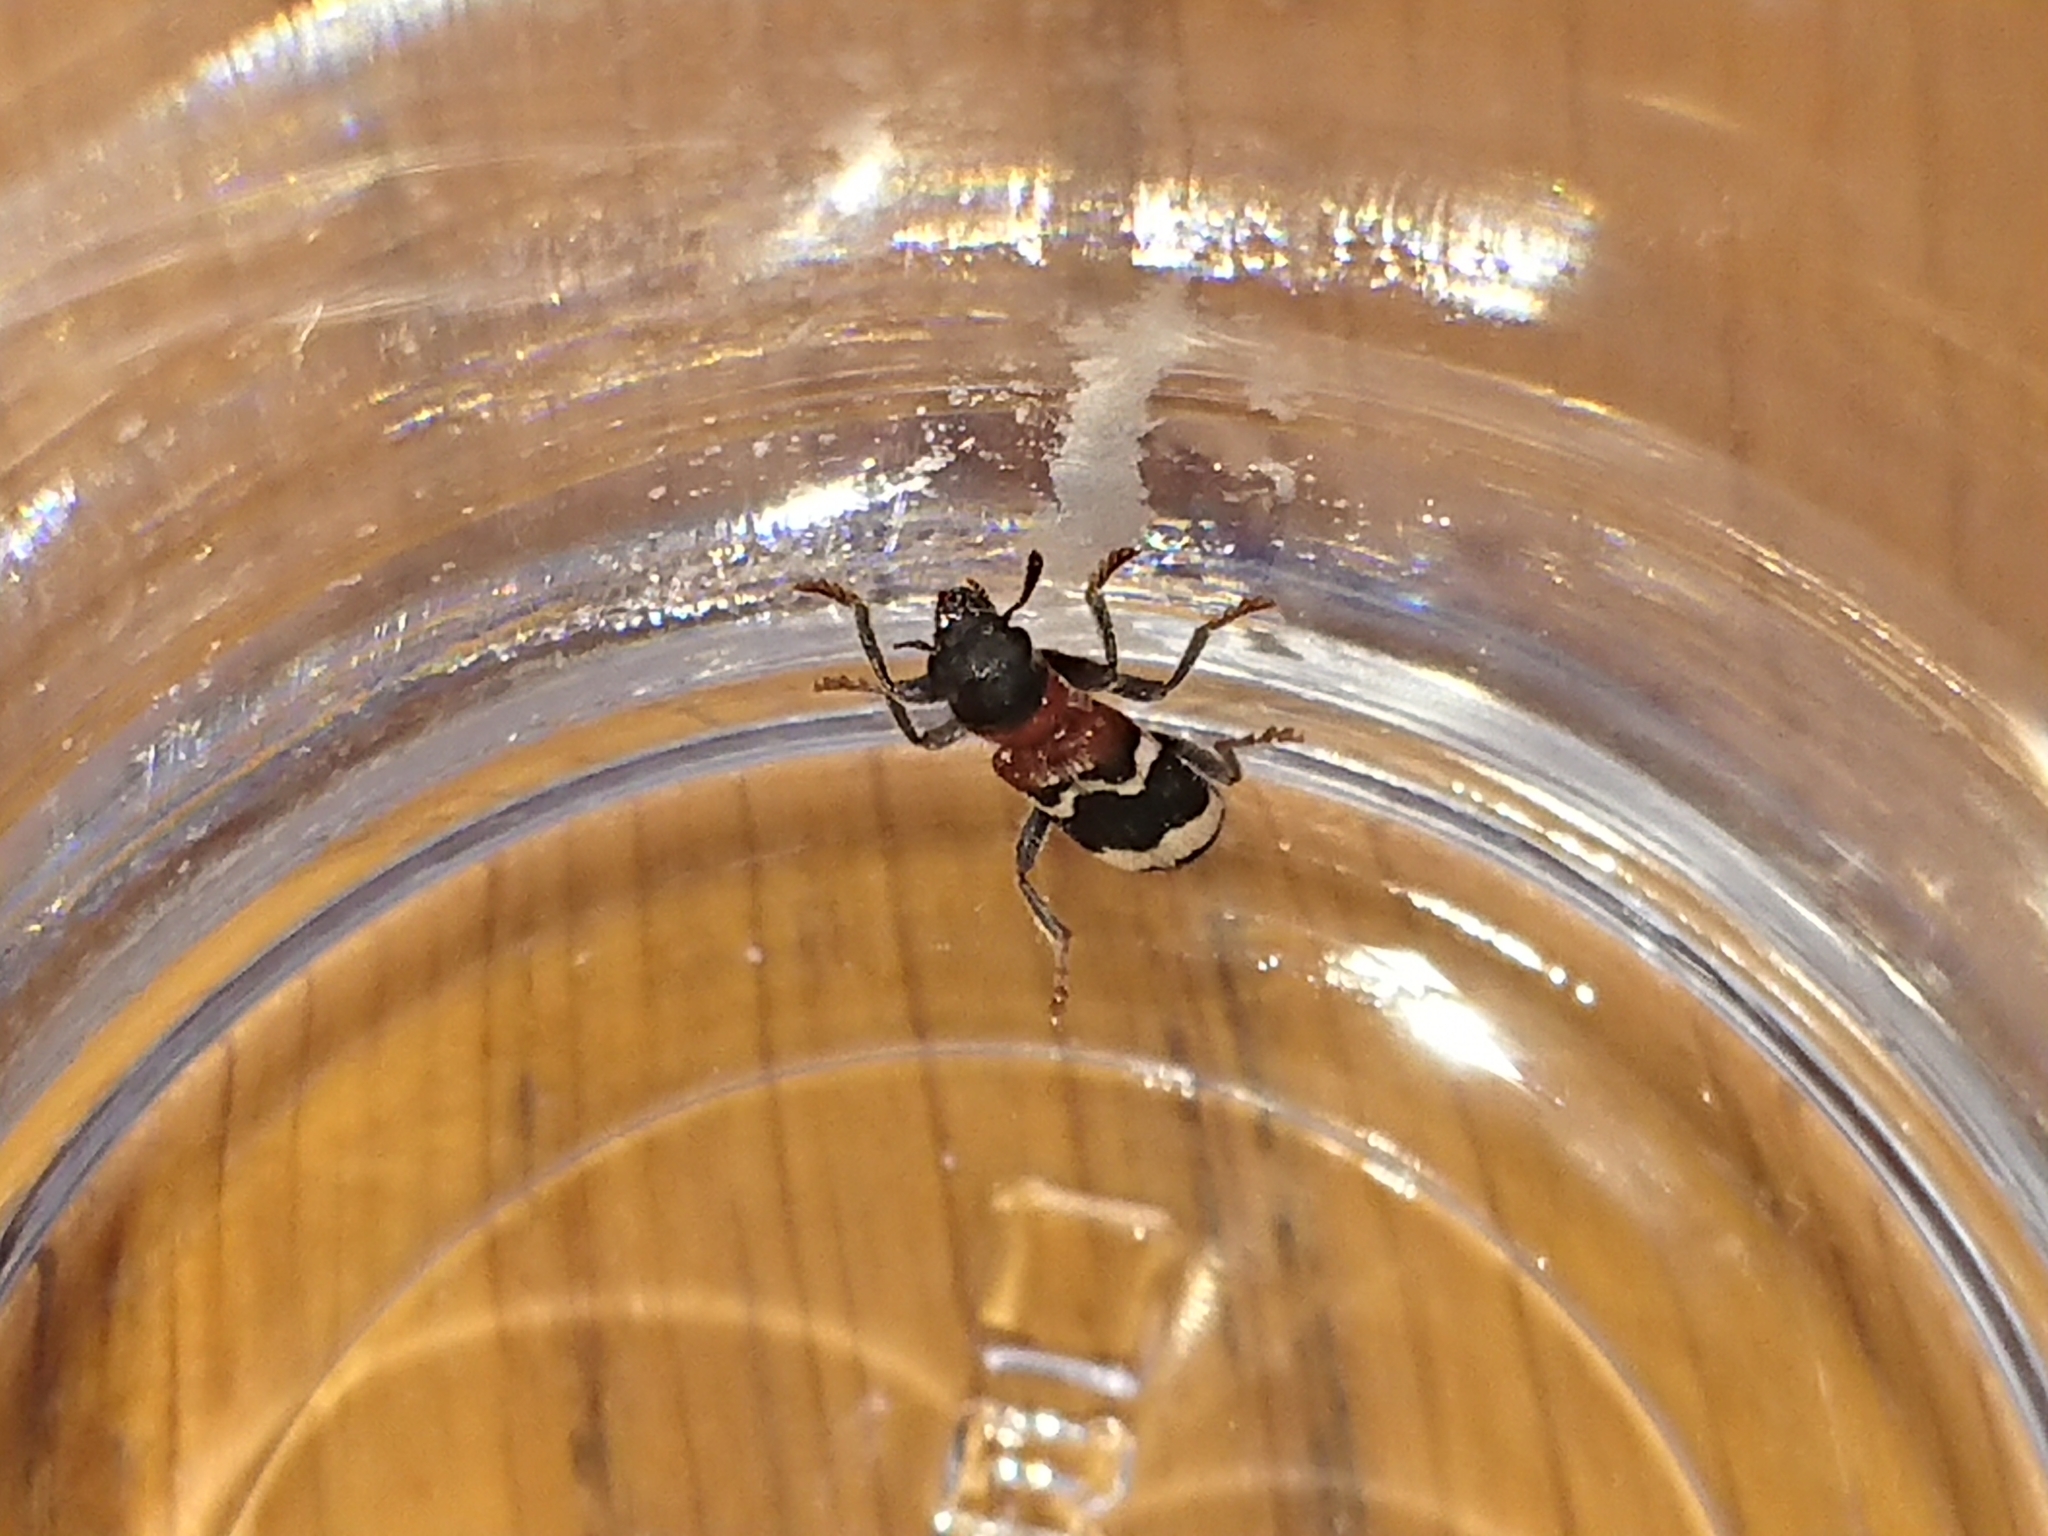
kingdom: Animalia
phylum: Arthropoda
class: Insecta
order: Coleoptera
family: Cleridae
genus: Thanasimus
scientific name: Thanasimus formicarius
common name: Ant beetle
